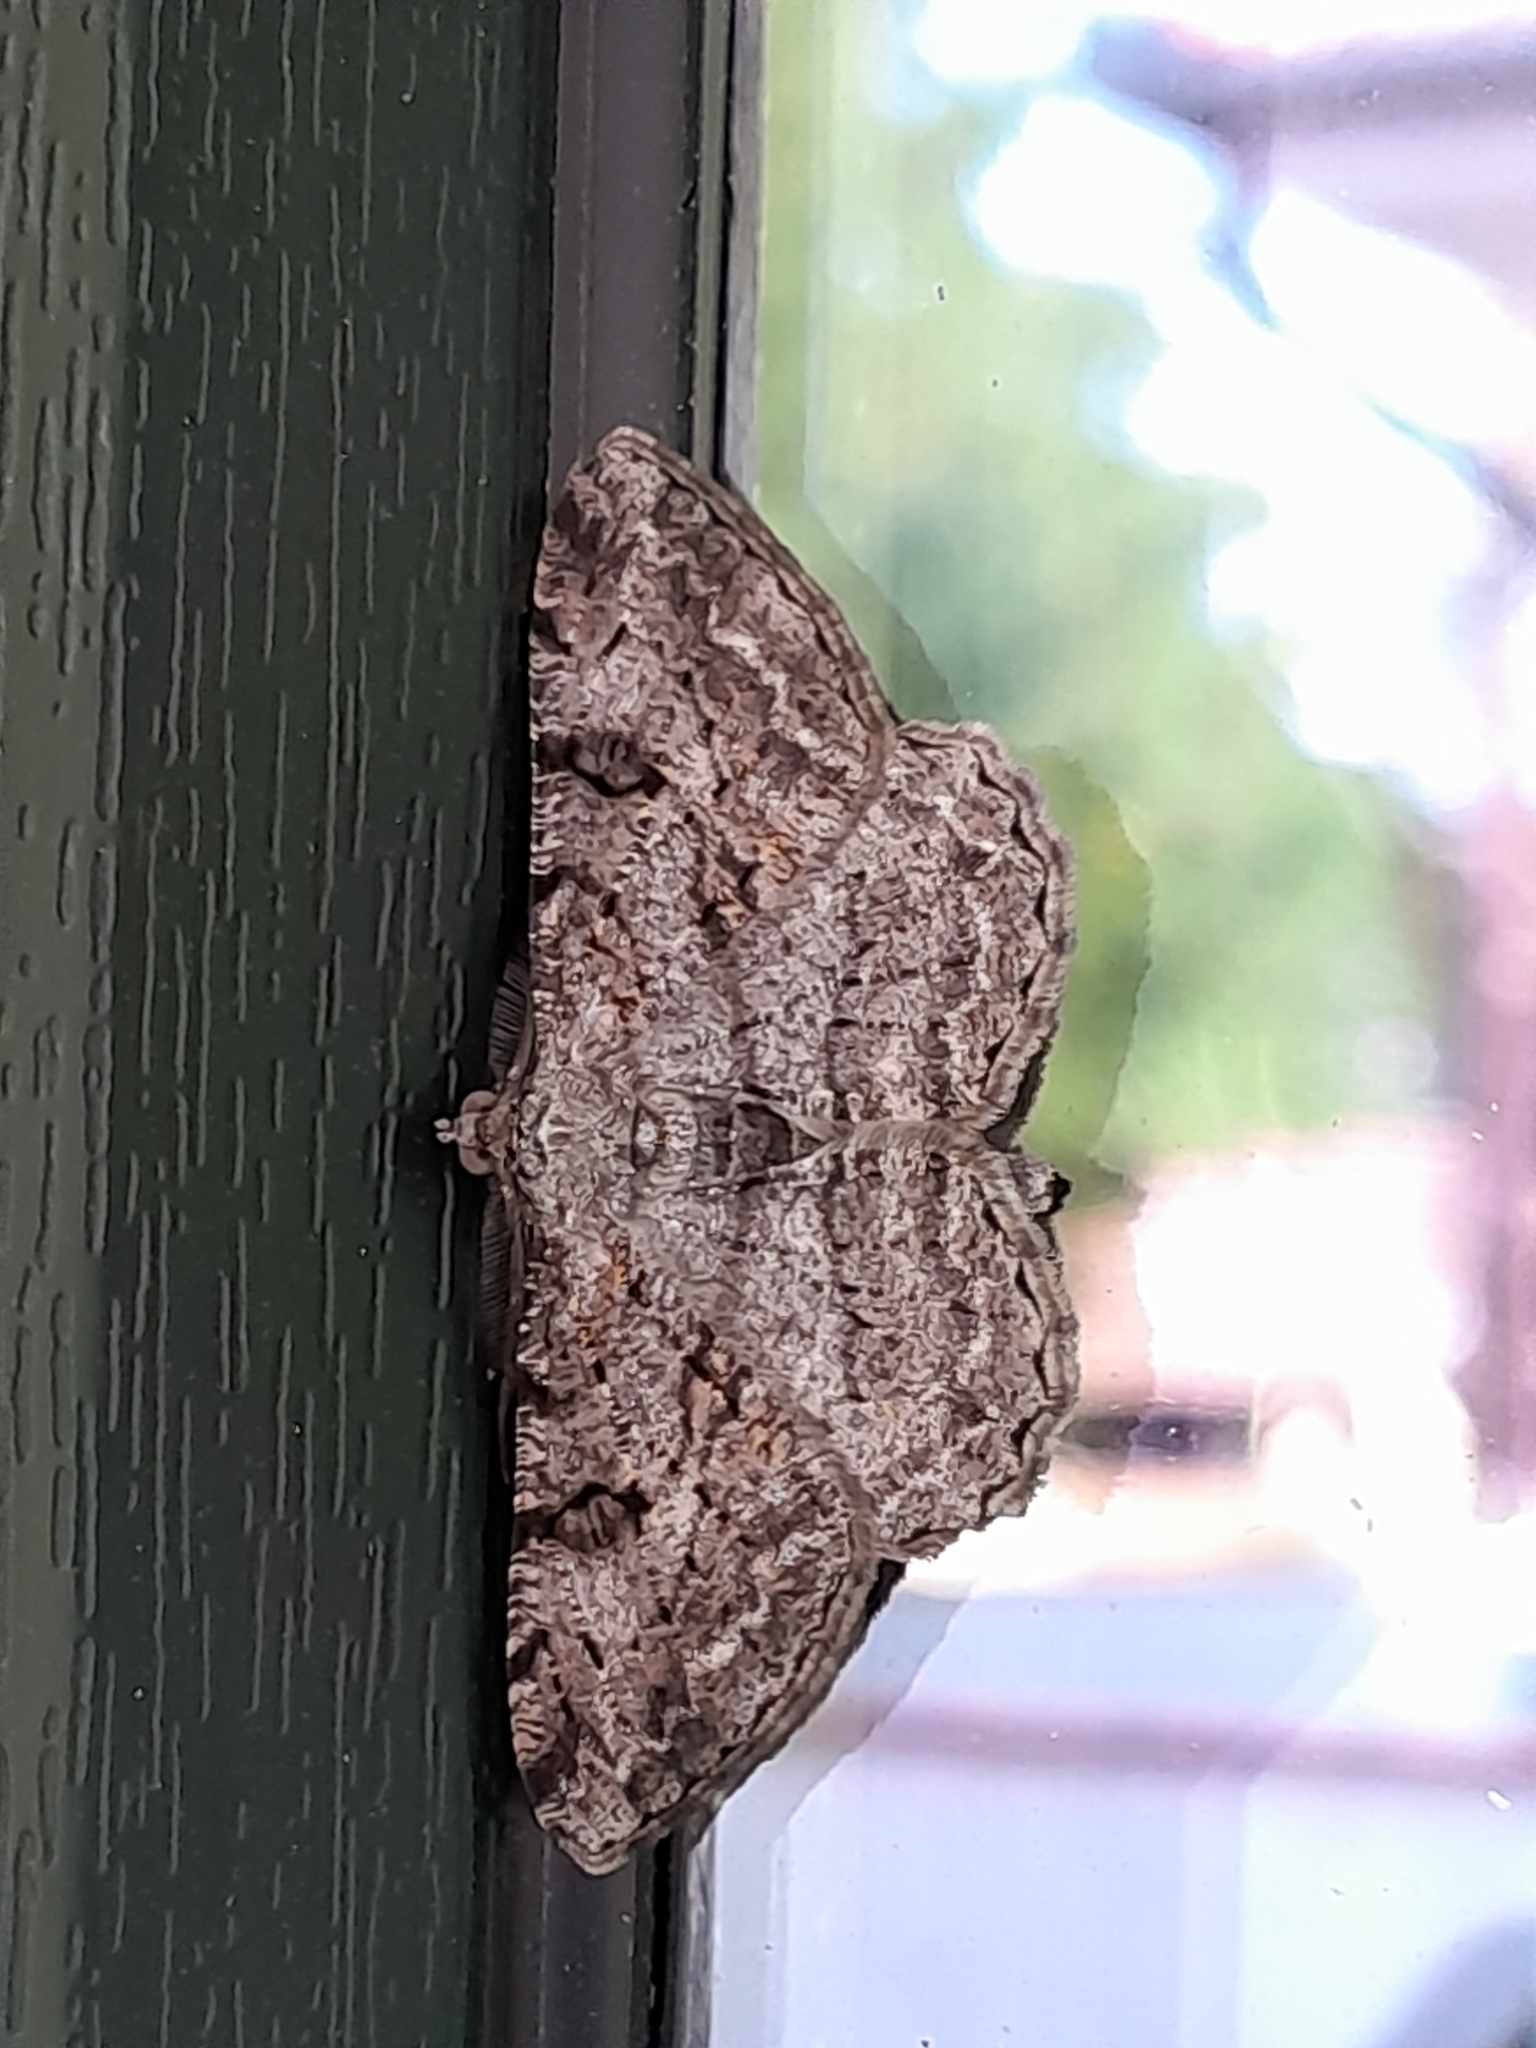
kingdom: Animalia
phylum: Arthropoda
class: Insecta
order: Lepidoptera
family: Geometridae
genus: Peribatodes
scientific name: Peribatodes rhomboidaria
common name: Willow beauty
